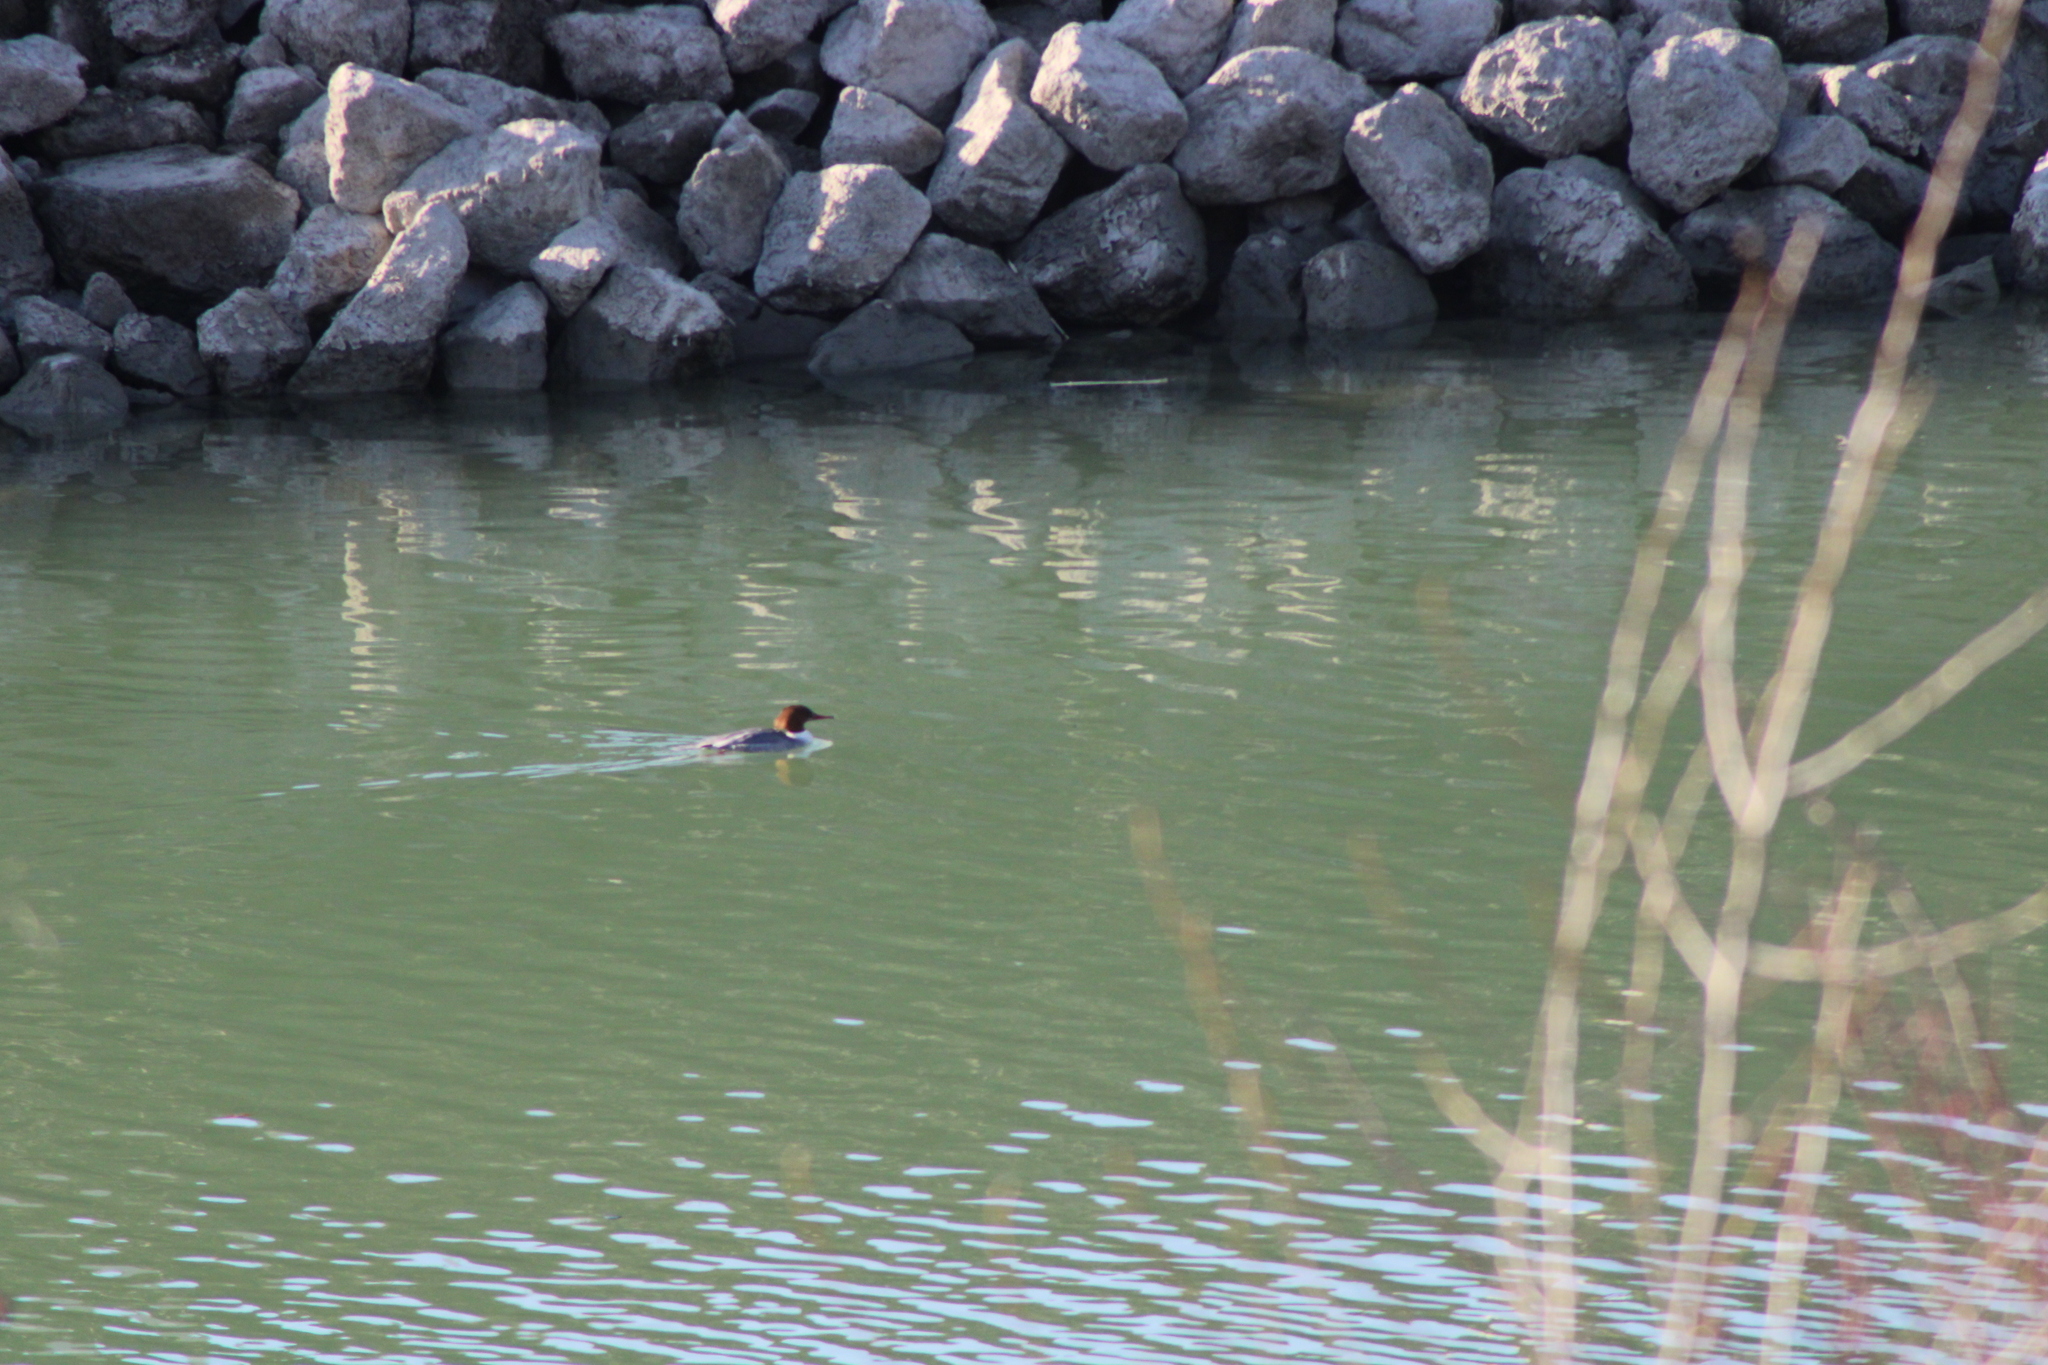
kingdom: Animalia
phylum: Chordata
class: Aves
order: Anseriformes
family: Anatidae
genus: Mergus
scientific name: Mergus merganser
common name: Common merganser
